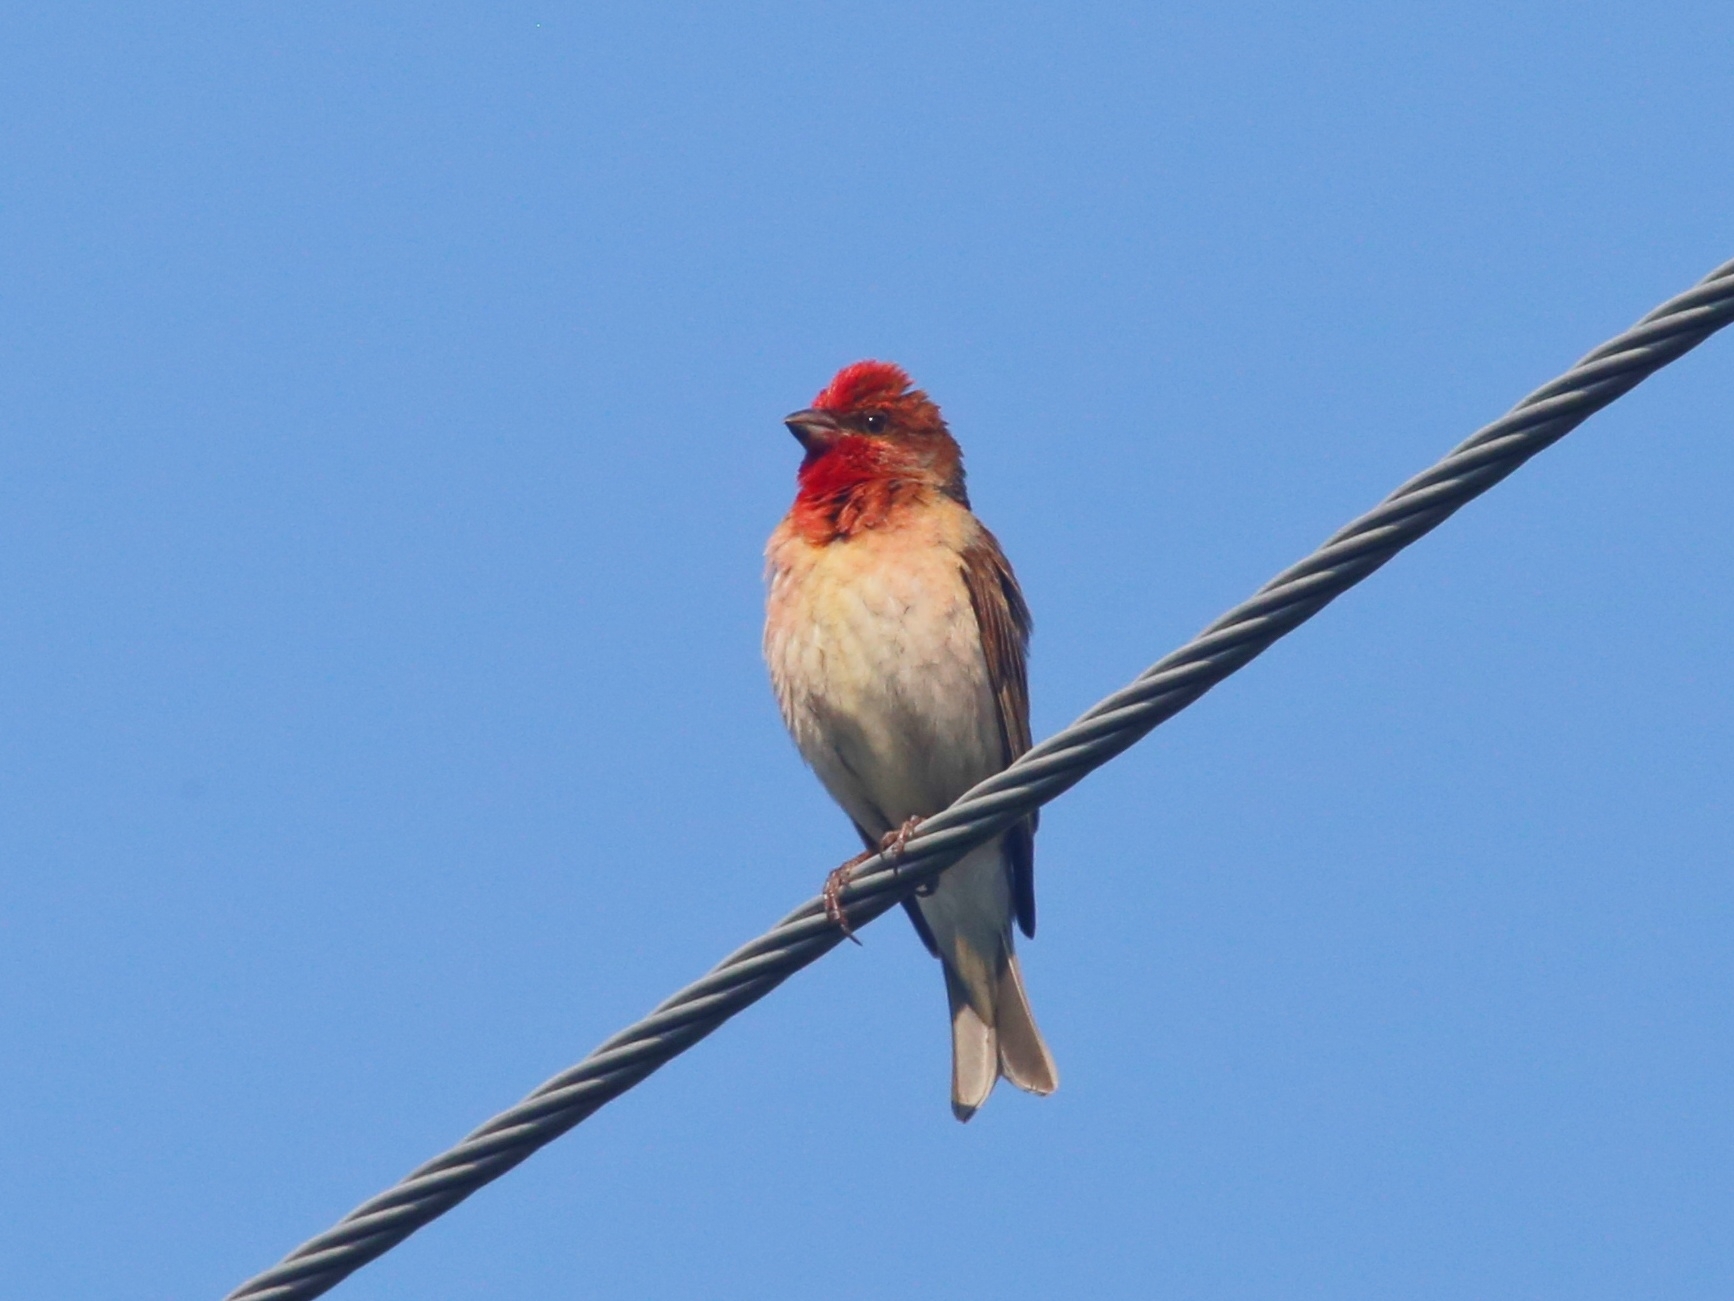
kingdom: Animalia
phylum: Chordata
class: Aves
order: Passeriformes
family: Fringillidae
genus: Carpodacus
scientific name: Carpodacus erythrinus
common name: Common rosefinch
